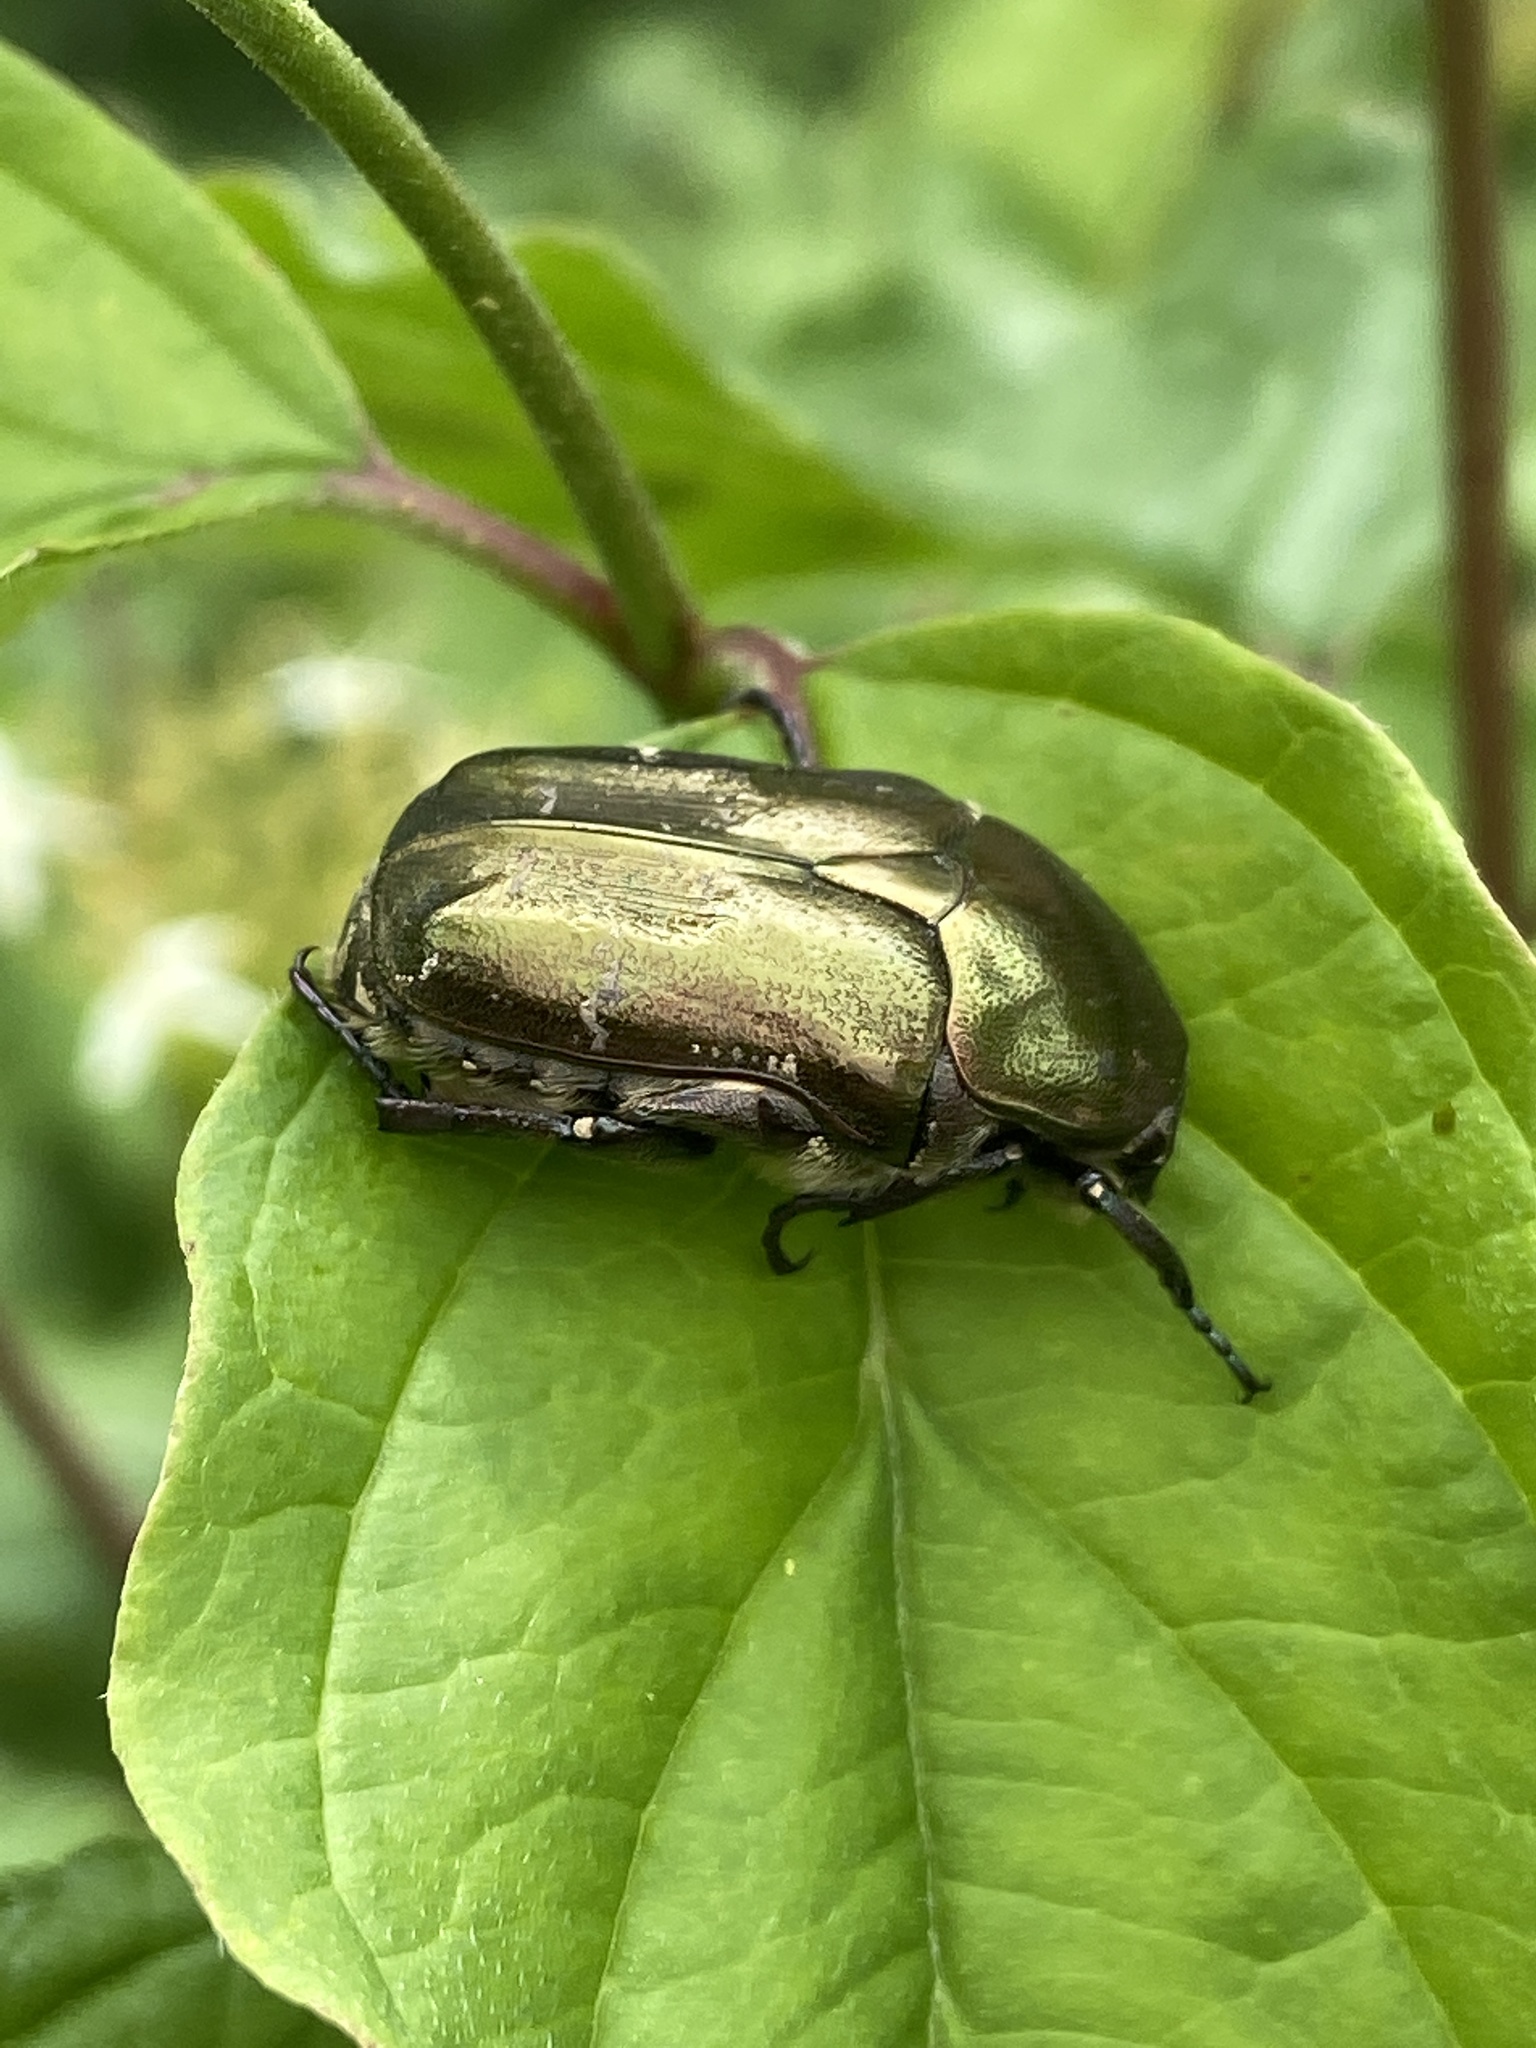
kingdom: Animalia
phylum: Arthropoda
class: Insecta
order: Coleoptera
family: Scarabaeidae
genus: Protaetia
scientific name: Protaetia cuprea
